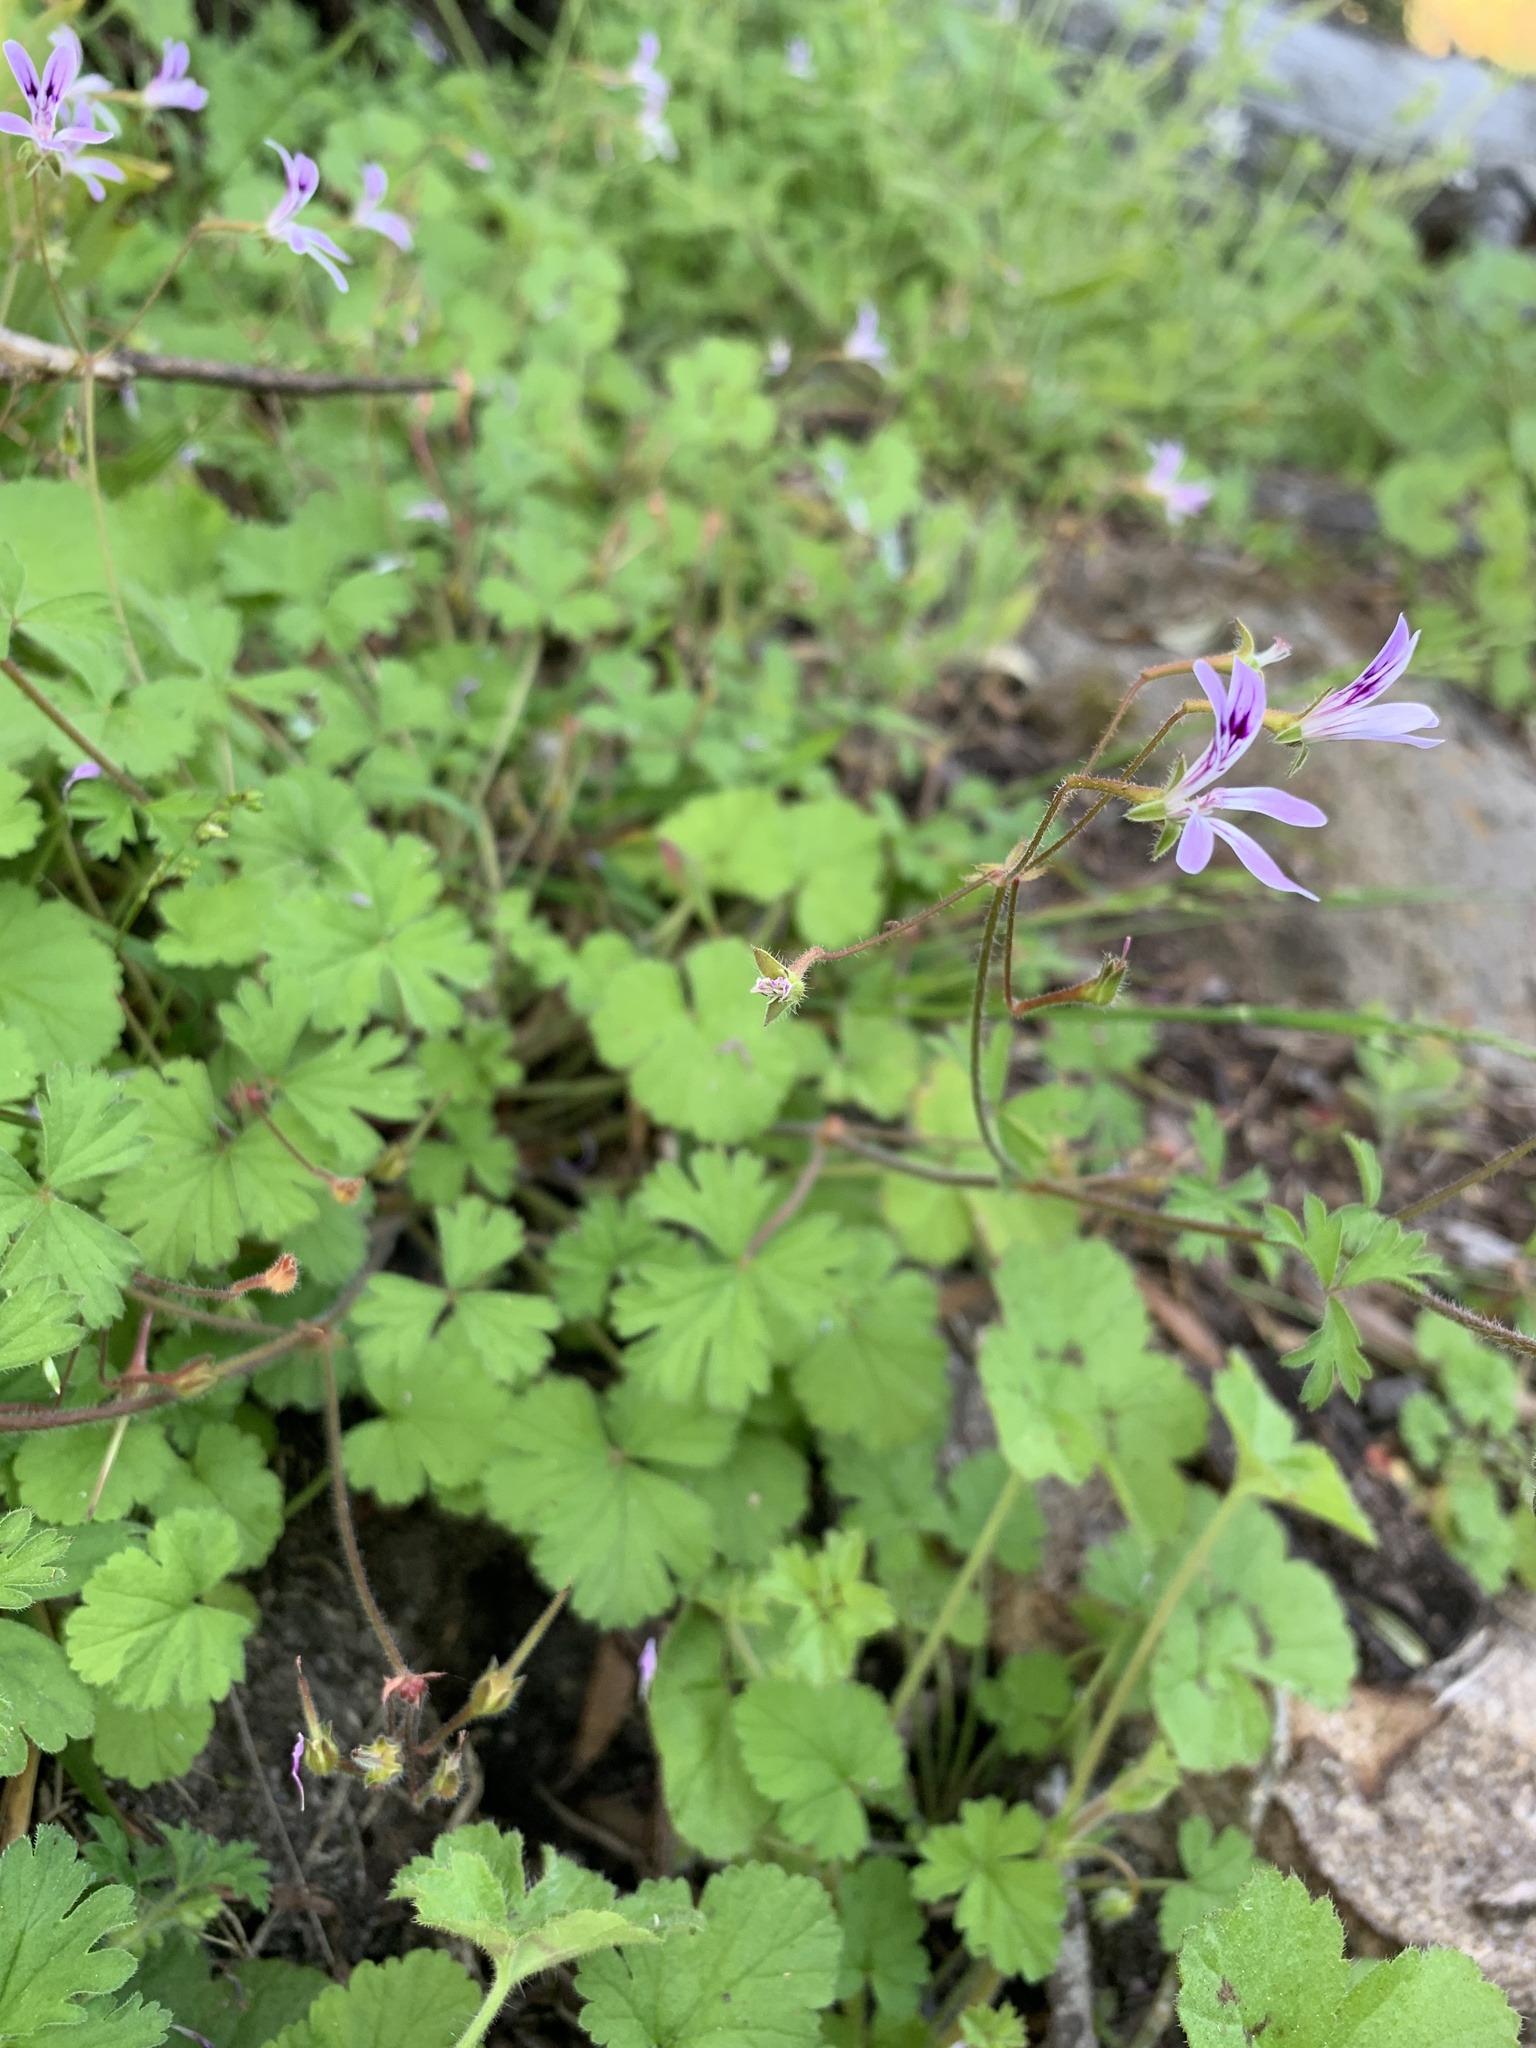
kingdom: Plantae
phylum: Tracheophyta
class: Magnoliopsida
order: Geraniales
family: Geraniaceae
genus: Pelargonium
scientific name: Pelargonium columbinum
